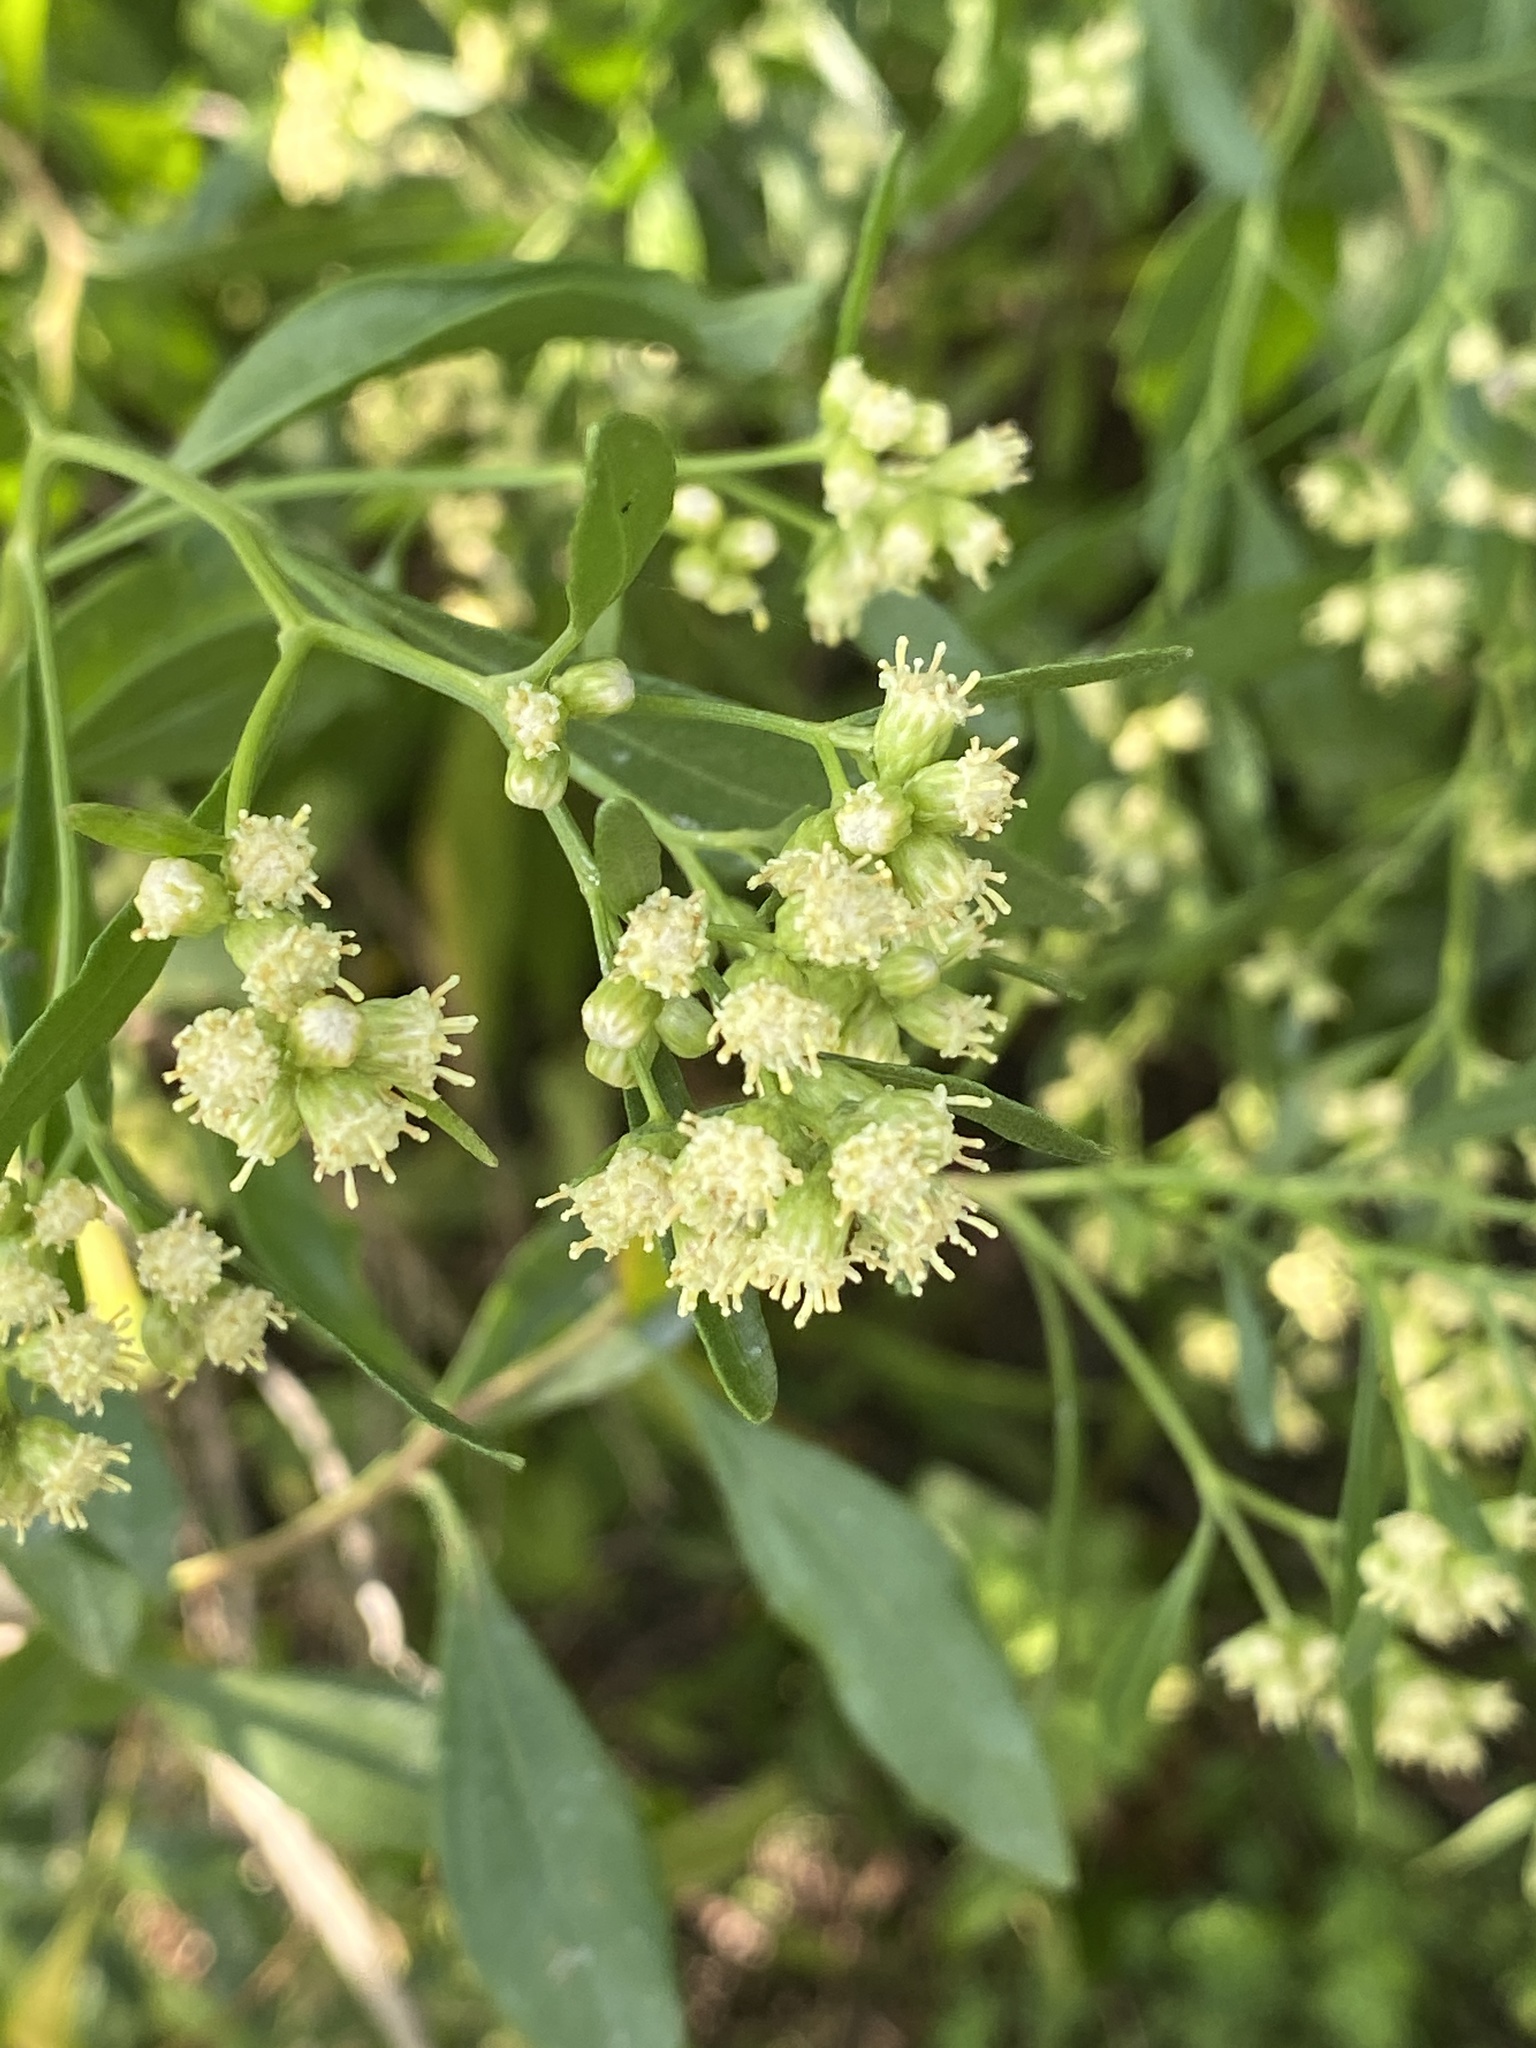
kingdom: Plantae
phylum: Tracheophyta
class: Magnoliopsida
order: Asterales
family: Asteraceae
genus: Baccharis
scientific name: Baccharis halimifolia
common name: Eastern baccharis
